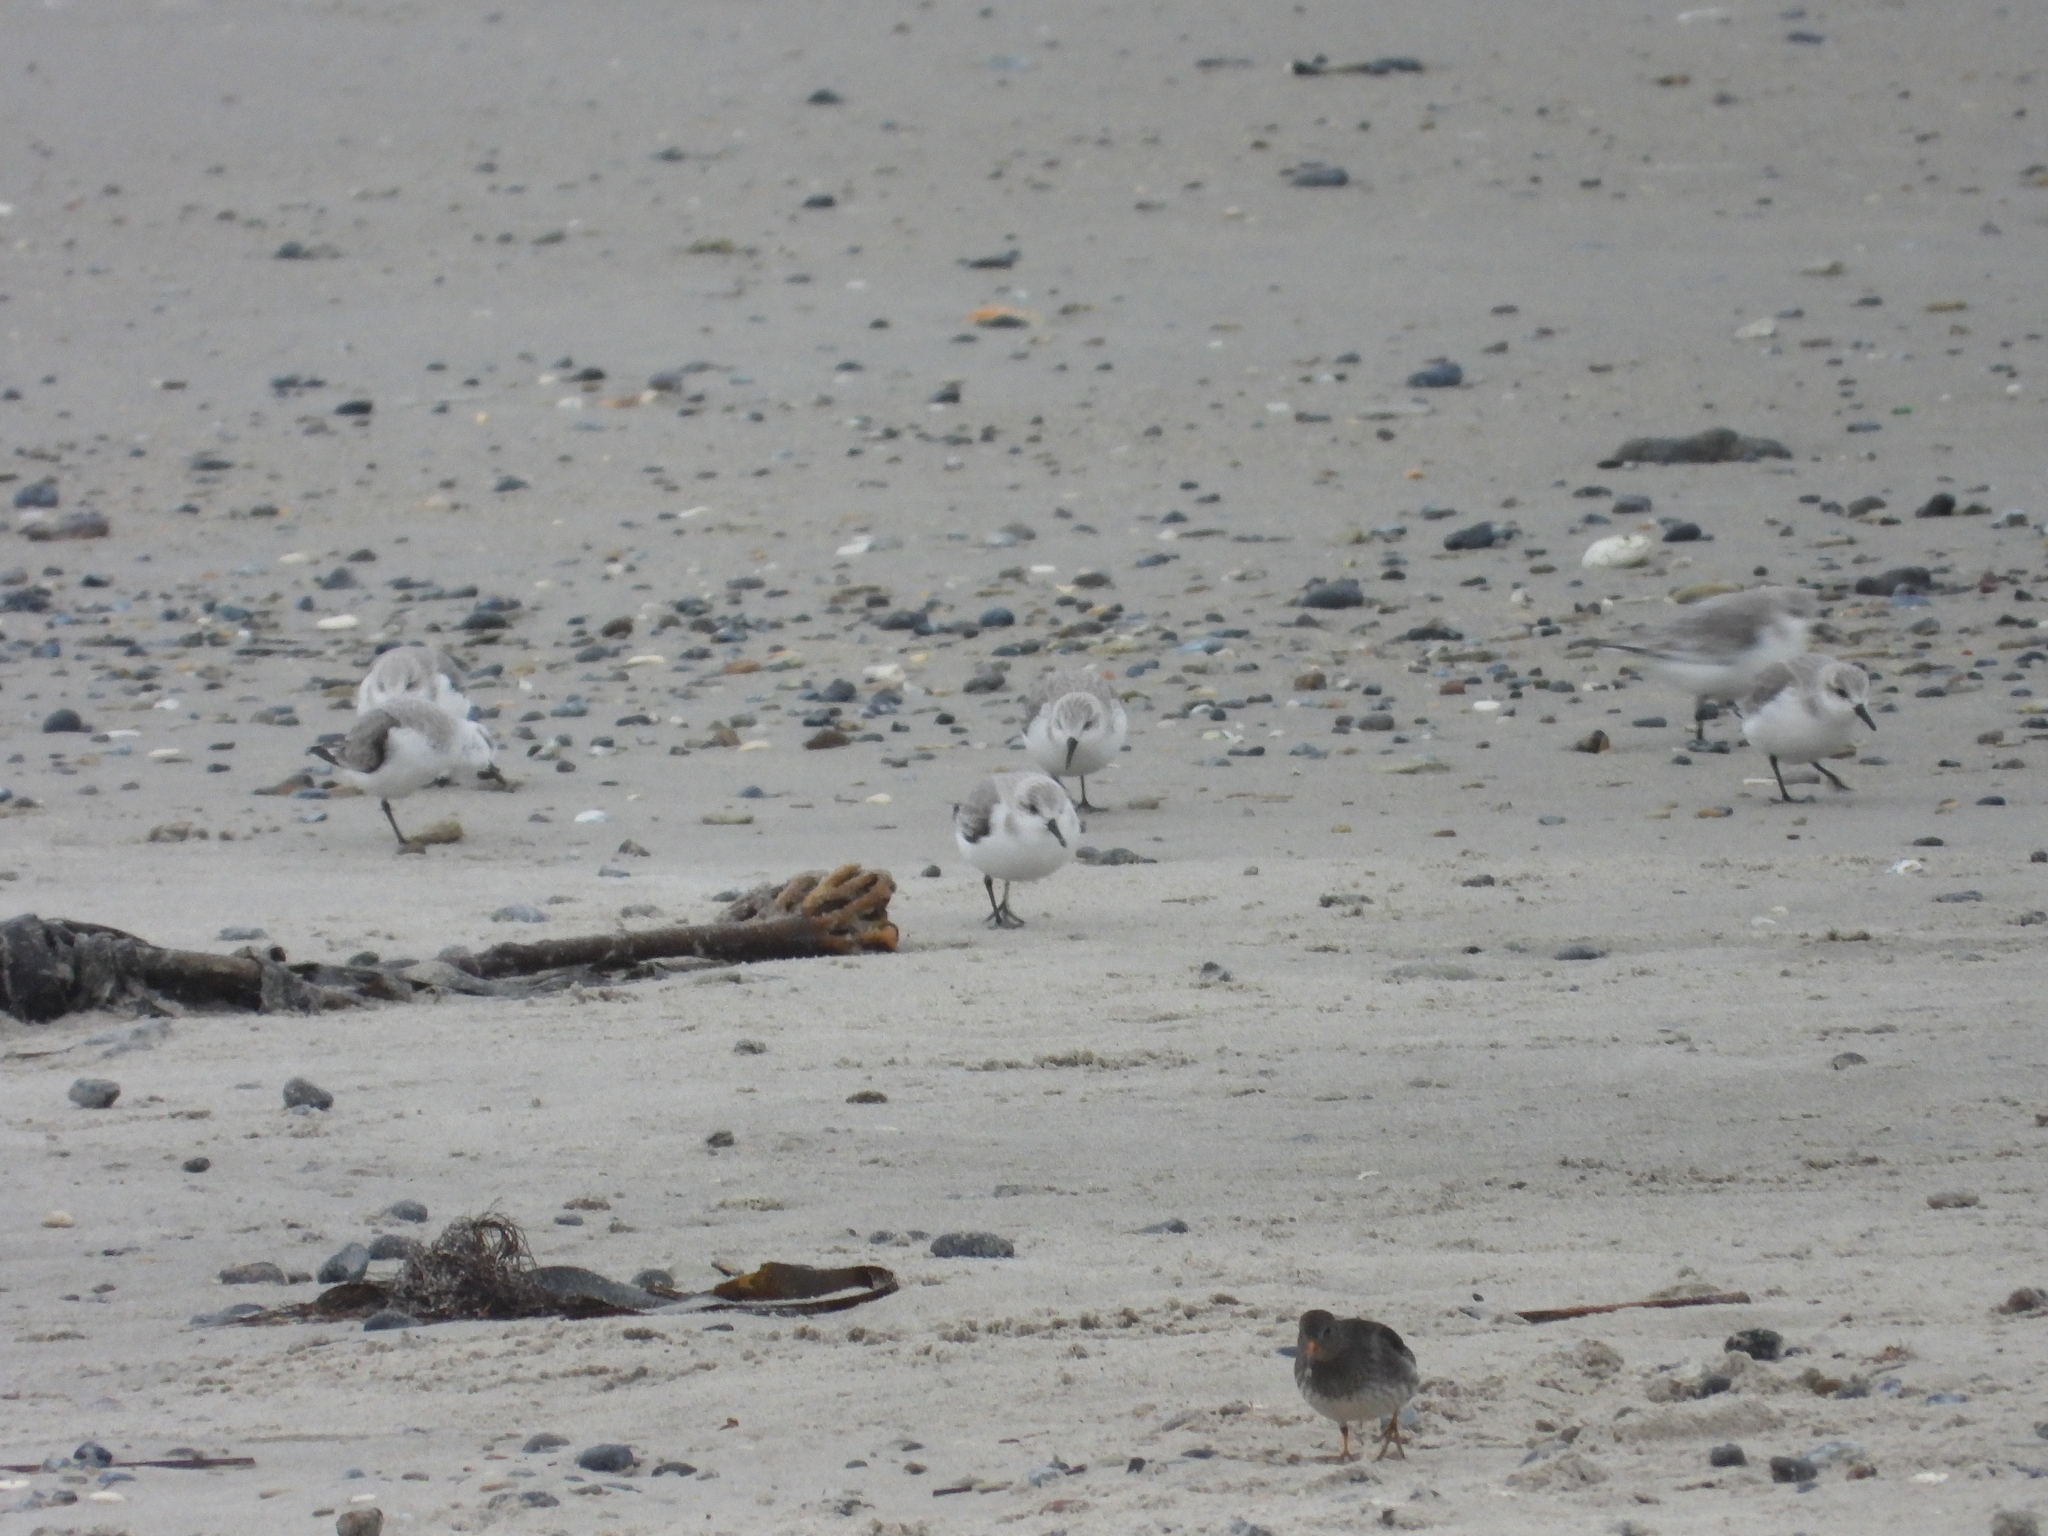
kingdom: Animalia
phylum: Chordata
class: Aves
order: Charadriiformes
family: Scolopacidae
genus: Calidris
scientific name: Calidris alba
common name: Sanderling
